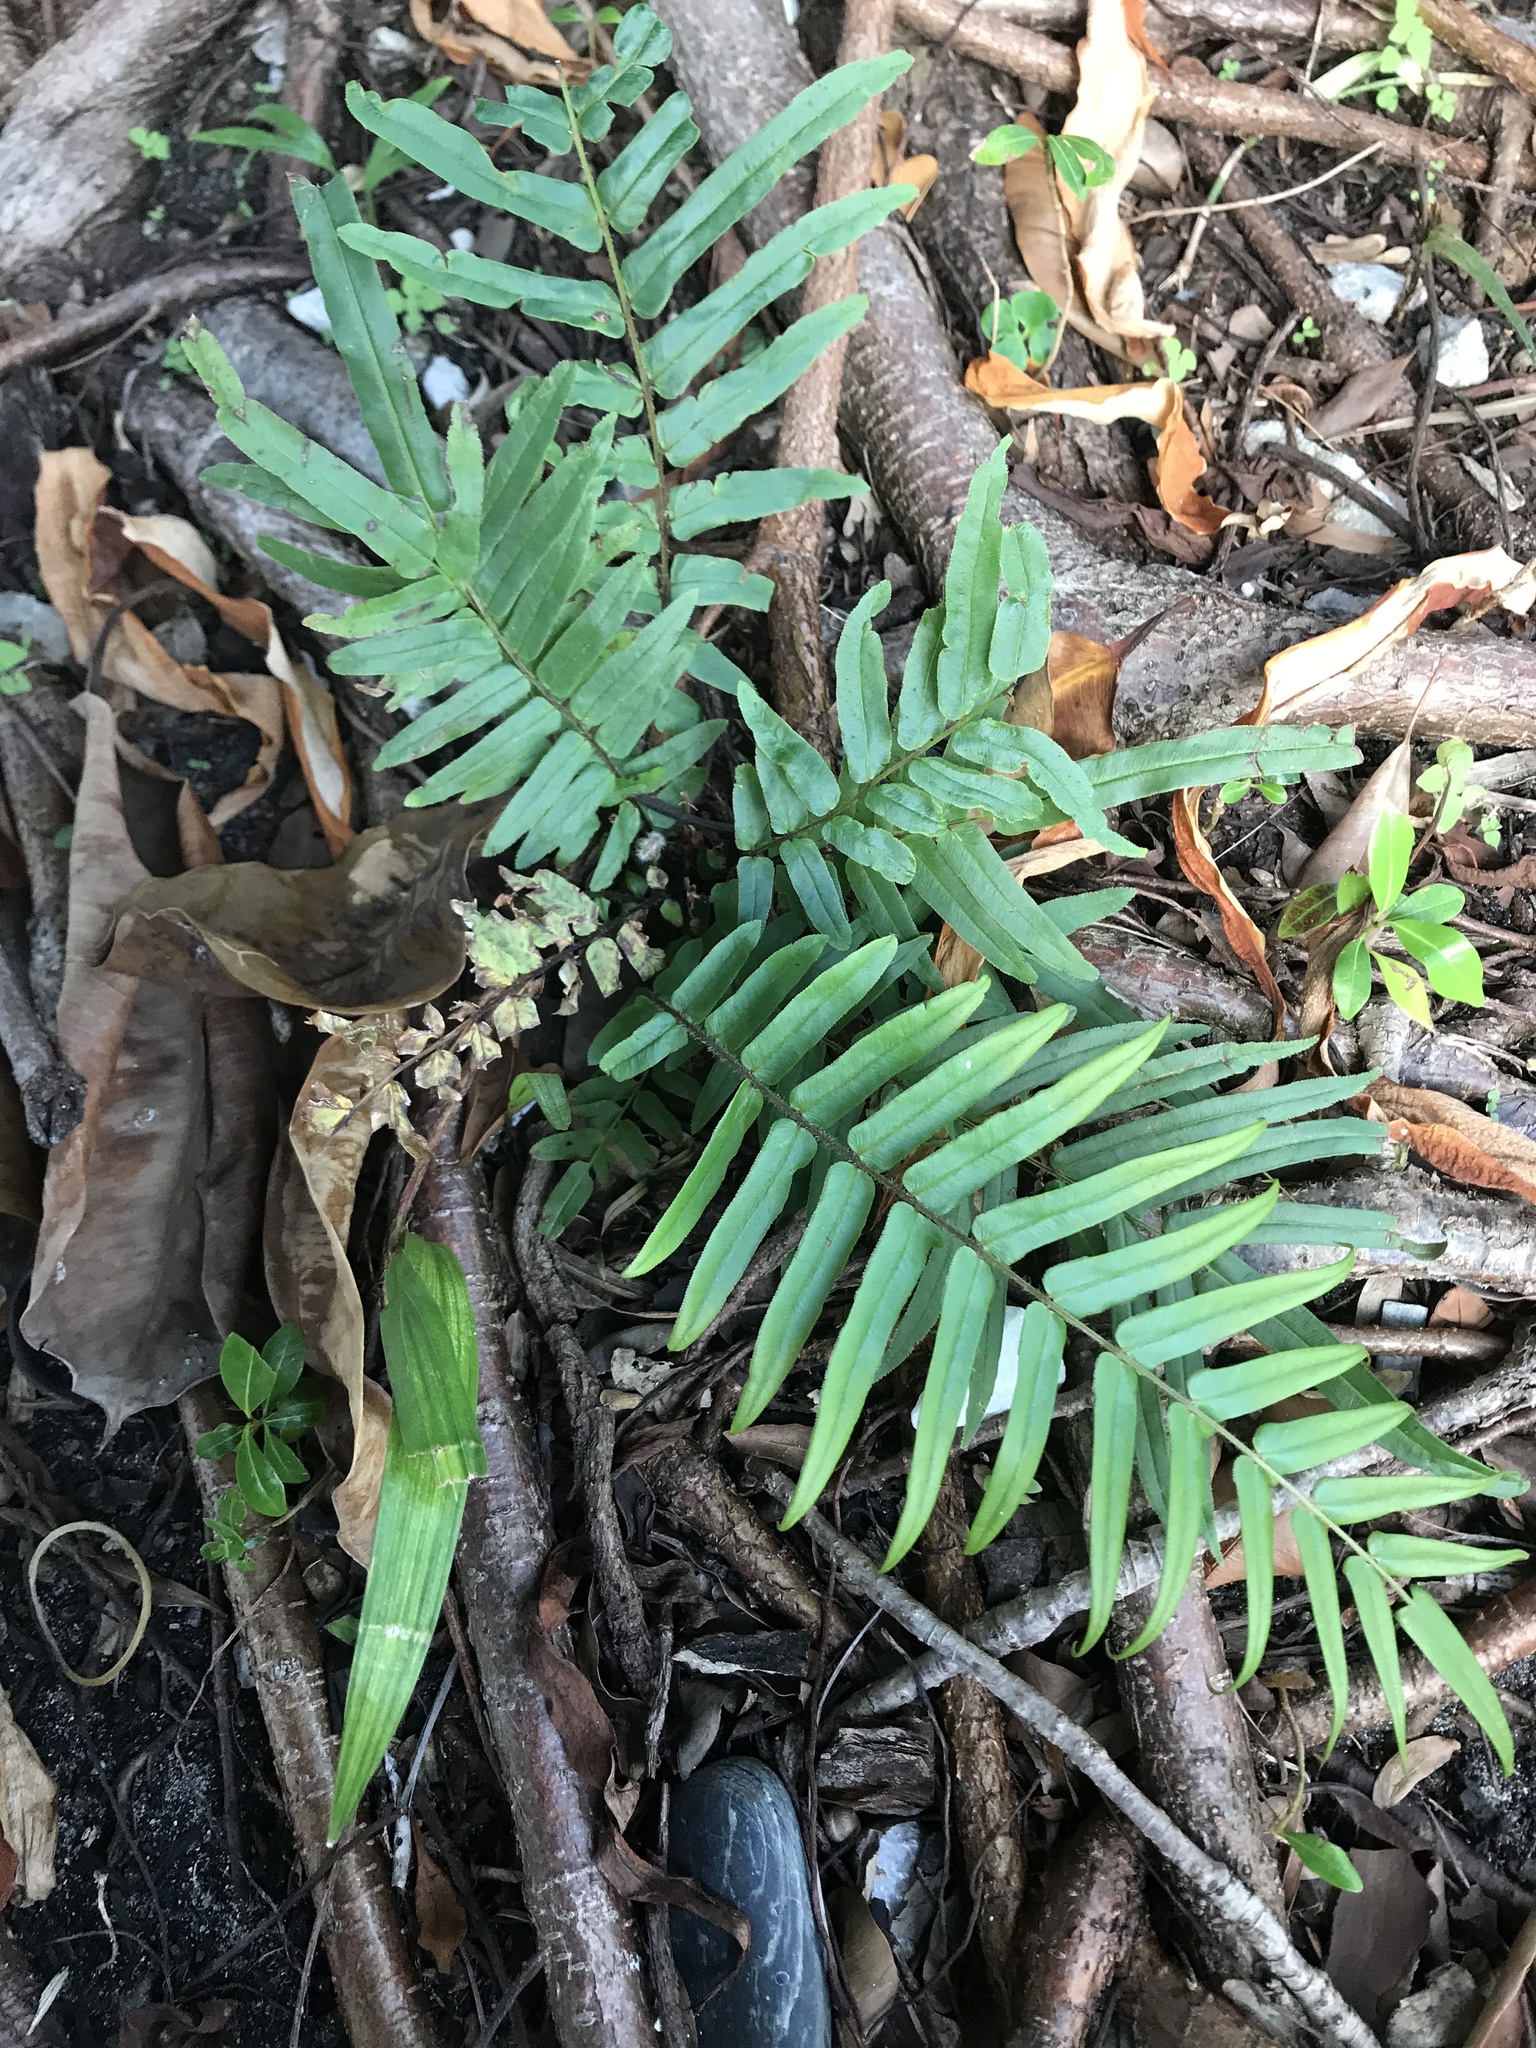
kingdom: Plantae
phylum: Tracheophyta
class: Polypodiopsida
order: Polypodiales
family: Pteridaceae
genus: Pteris
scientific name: Pteris vittata
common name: Ladder brake
